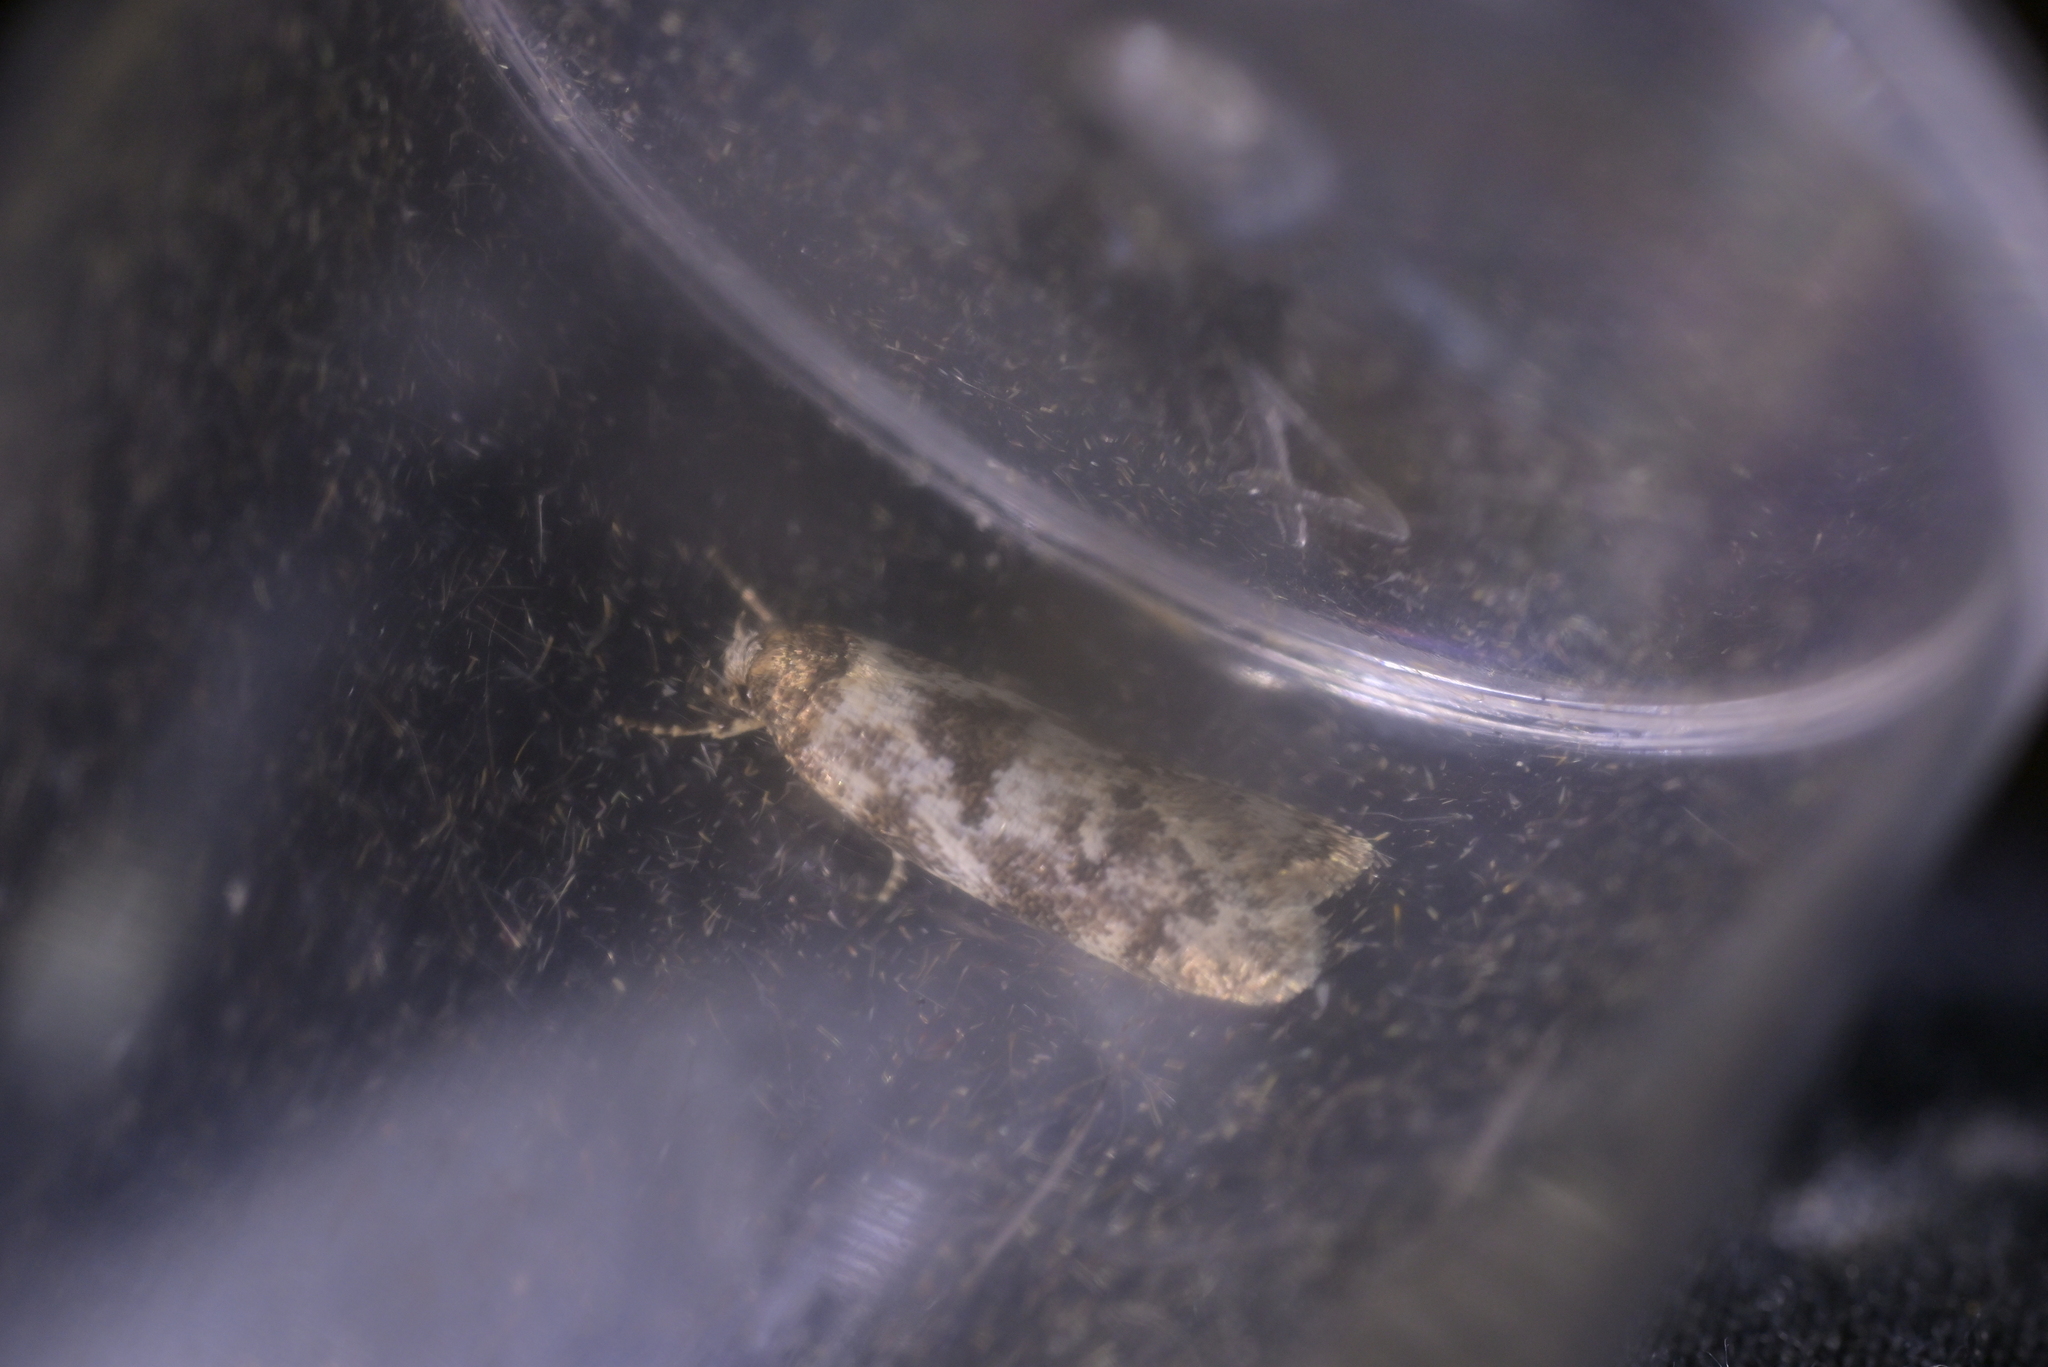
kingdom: Animalia
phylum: Arthropoda
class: Insecta
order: Lepidoptera
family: Oecophoridae
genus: Trachypepla
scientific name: Trachypepla photinella
